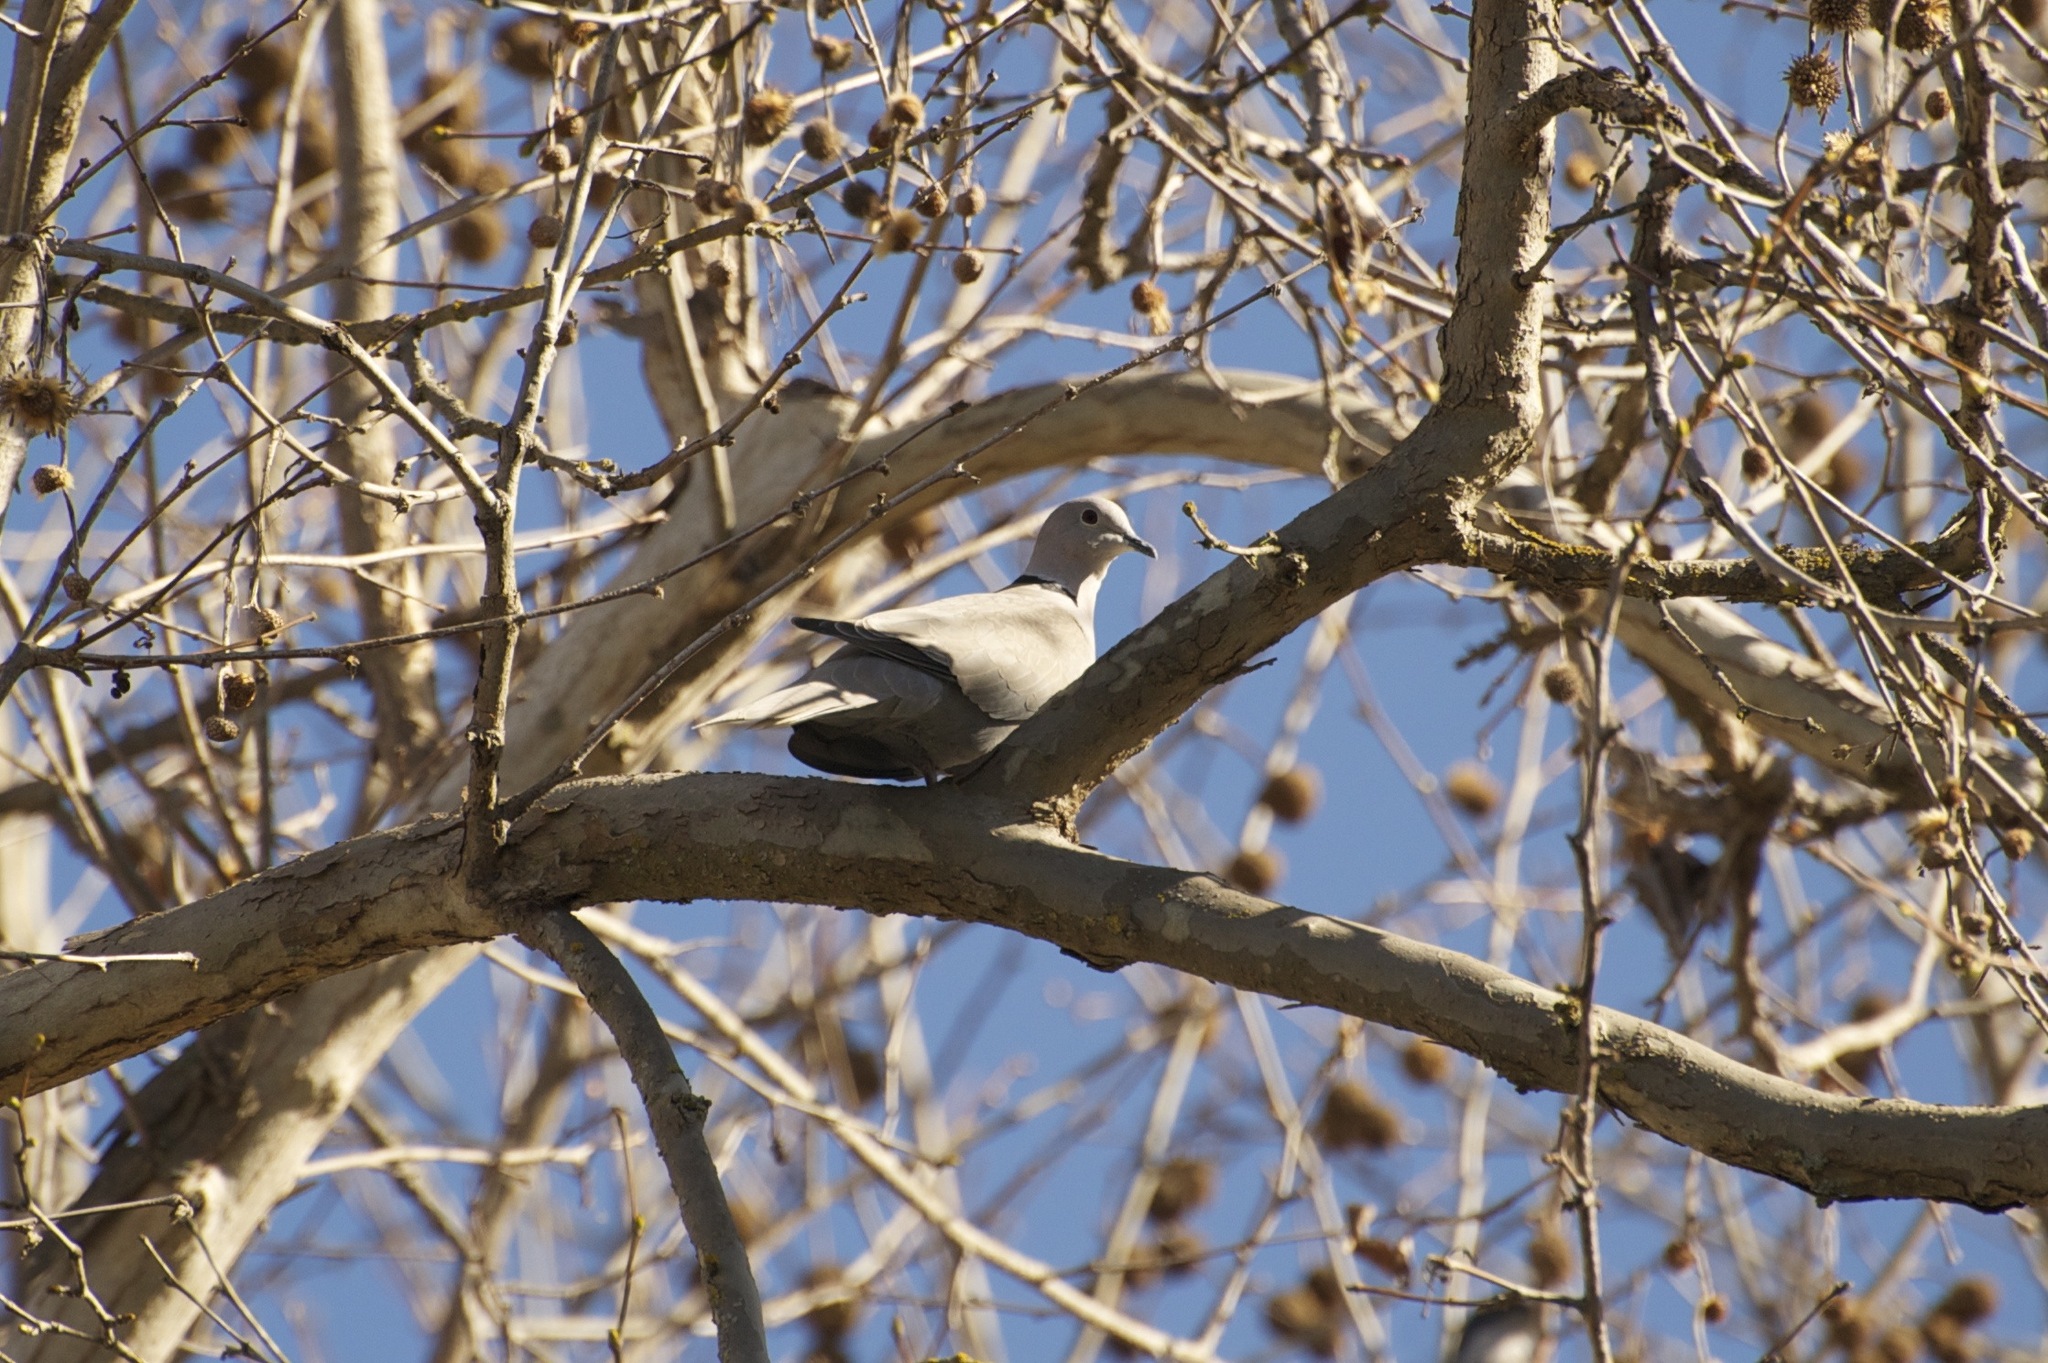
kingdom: Animalia
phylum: Chordata
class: Aves
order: Columbiformes
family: Columbidae
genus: Streptopelia
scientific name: Streptopelia decaocto
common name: Eurasian collared dove
